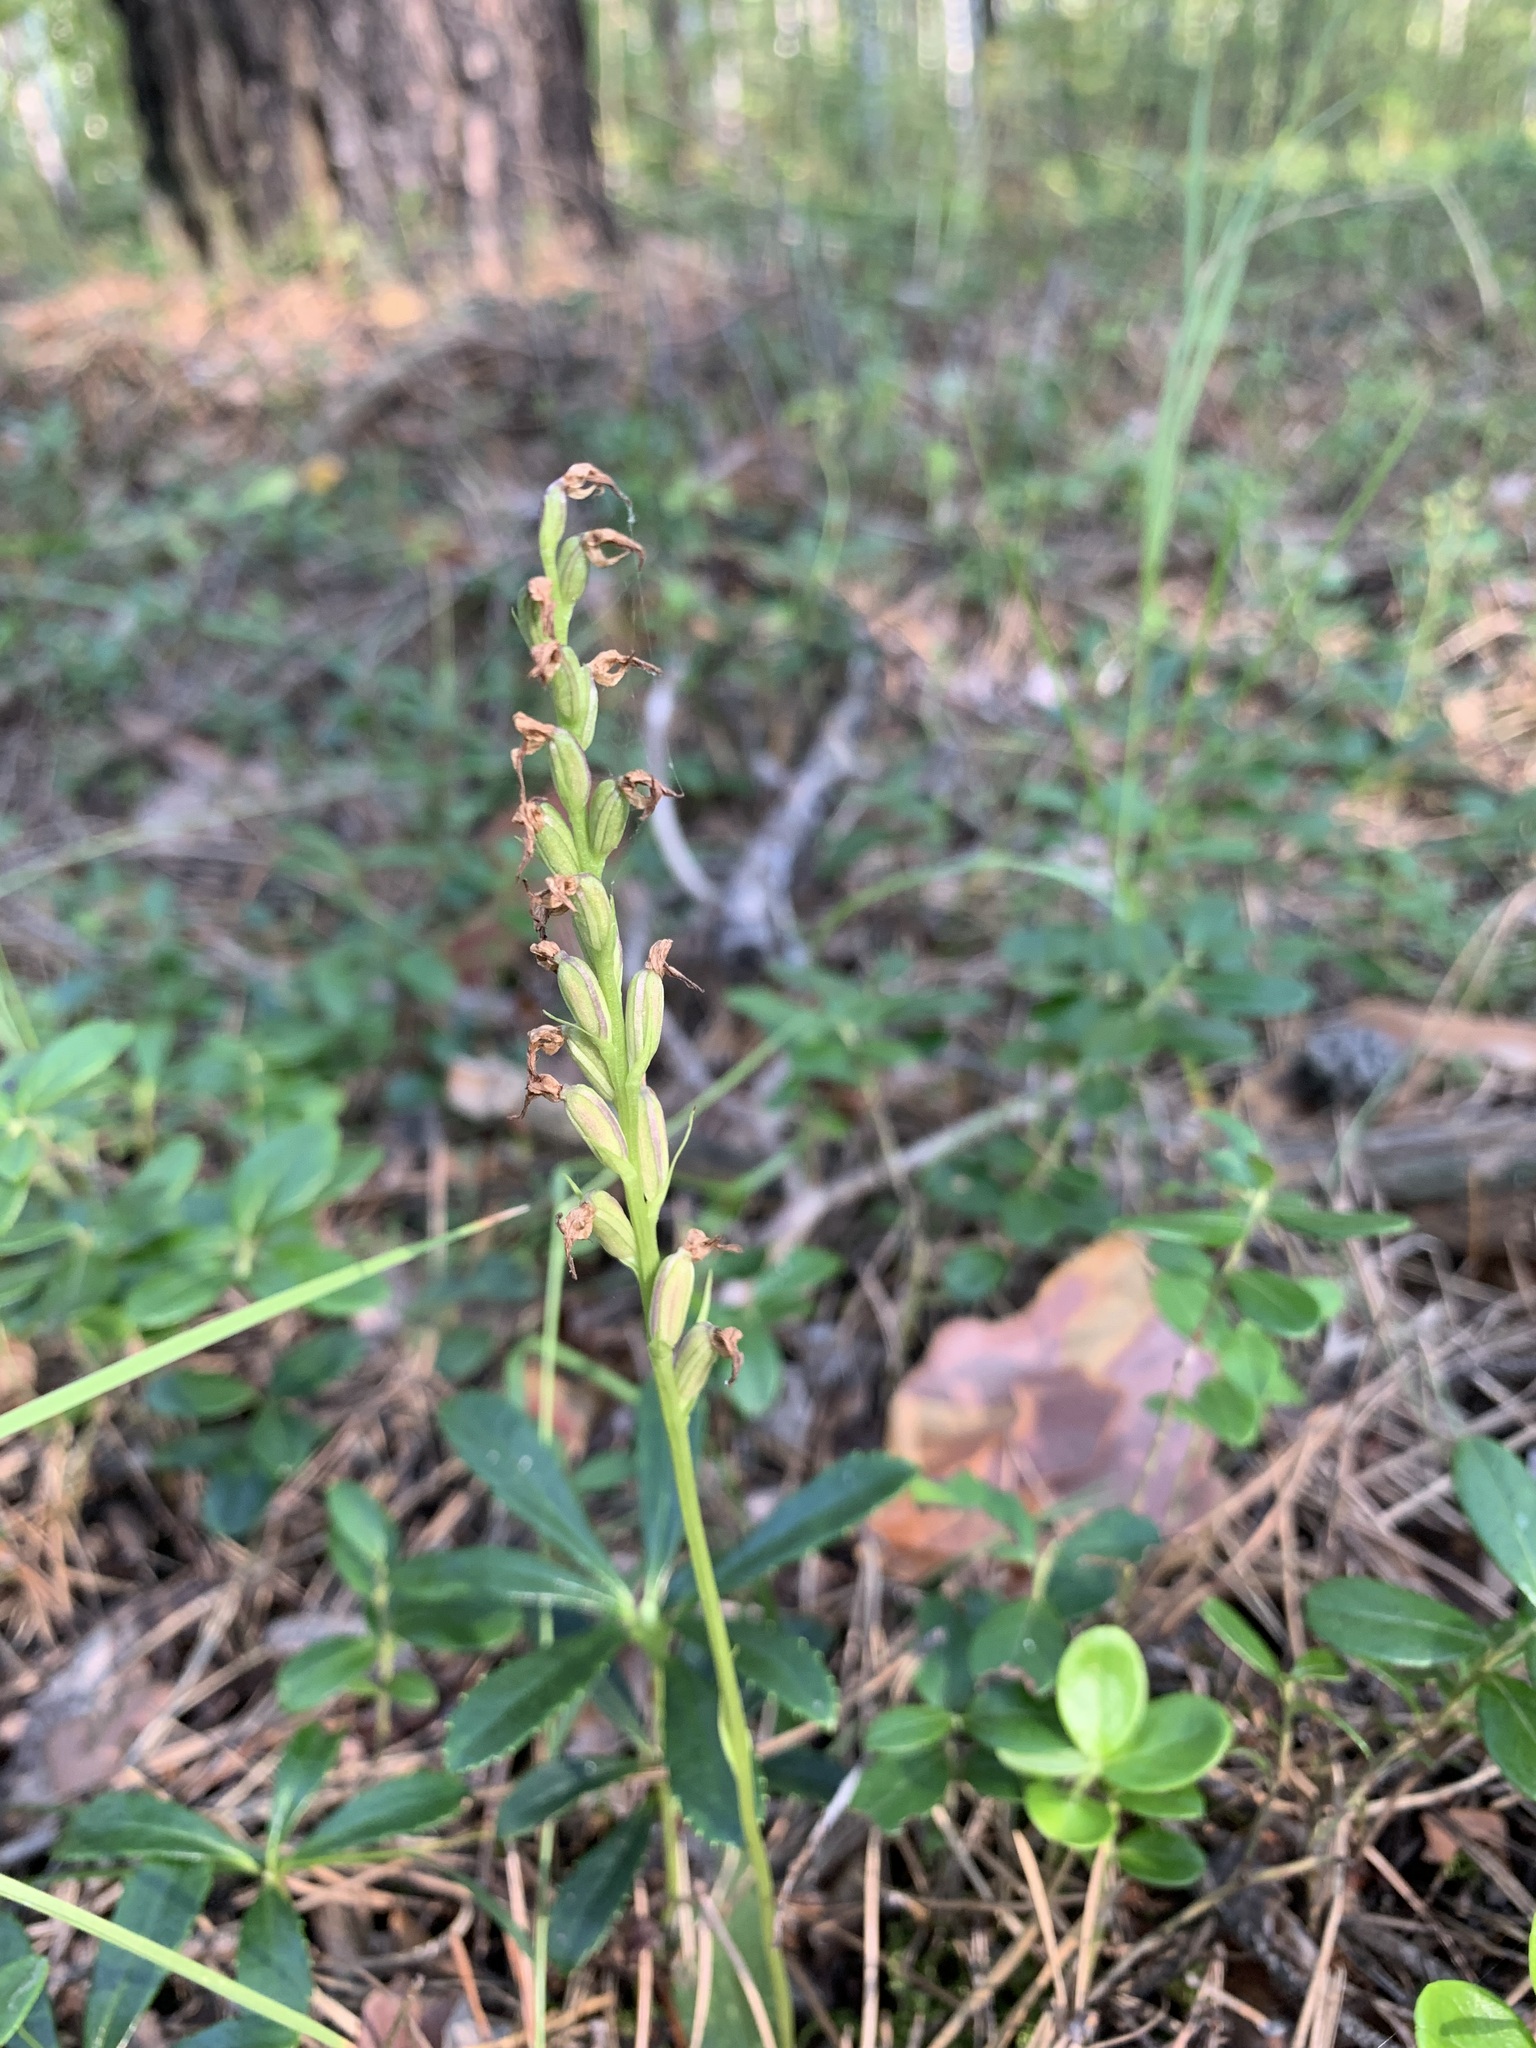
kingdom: Plantae
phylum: Tracheophyta
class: Liliopsida
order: Asparagales
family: Orchidaceae
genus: Hemipilia
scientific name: Hemipilia cucullata
